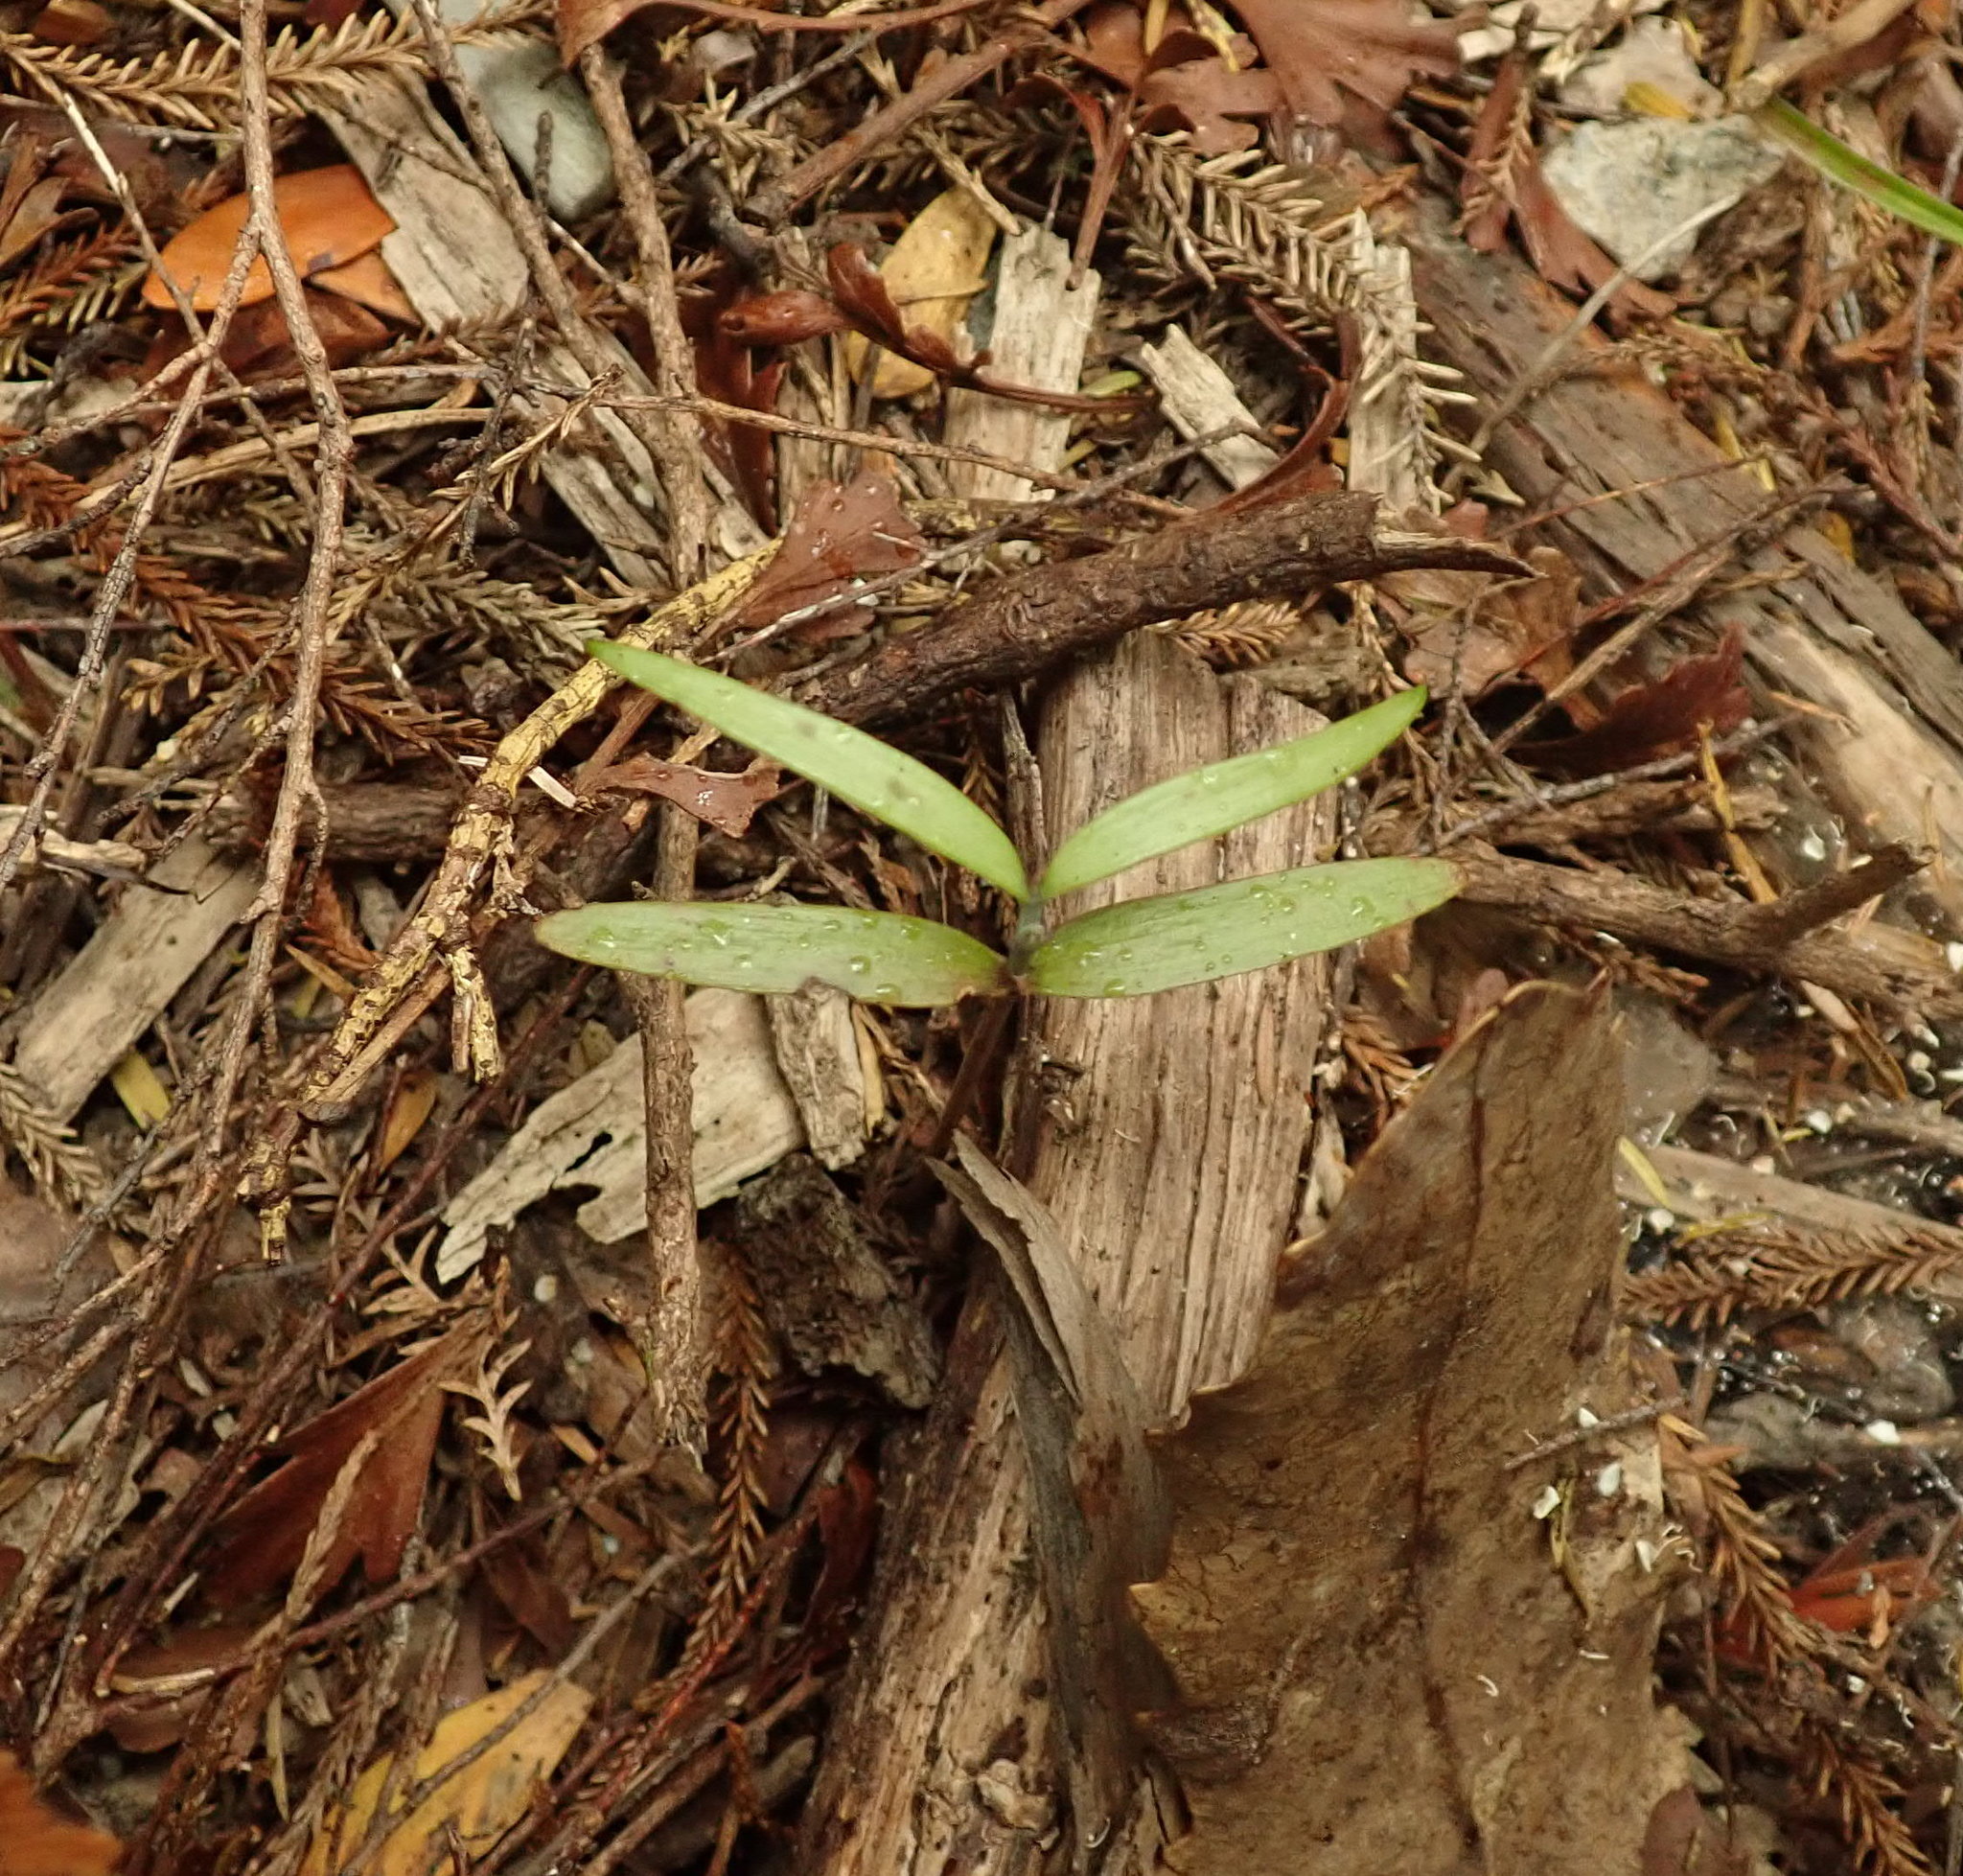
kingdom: Plantae
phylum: Tracheophyta
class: Pinopsida
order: Pinales
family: Araucariaceae
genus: Agathis
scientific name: Agathis australis
